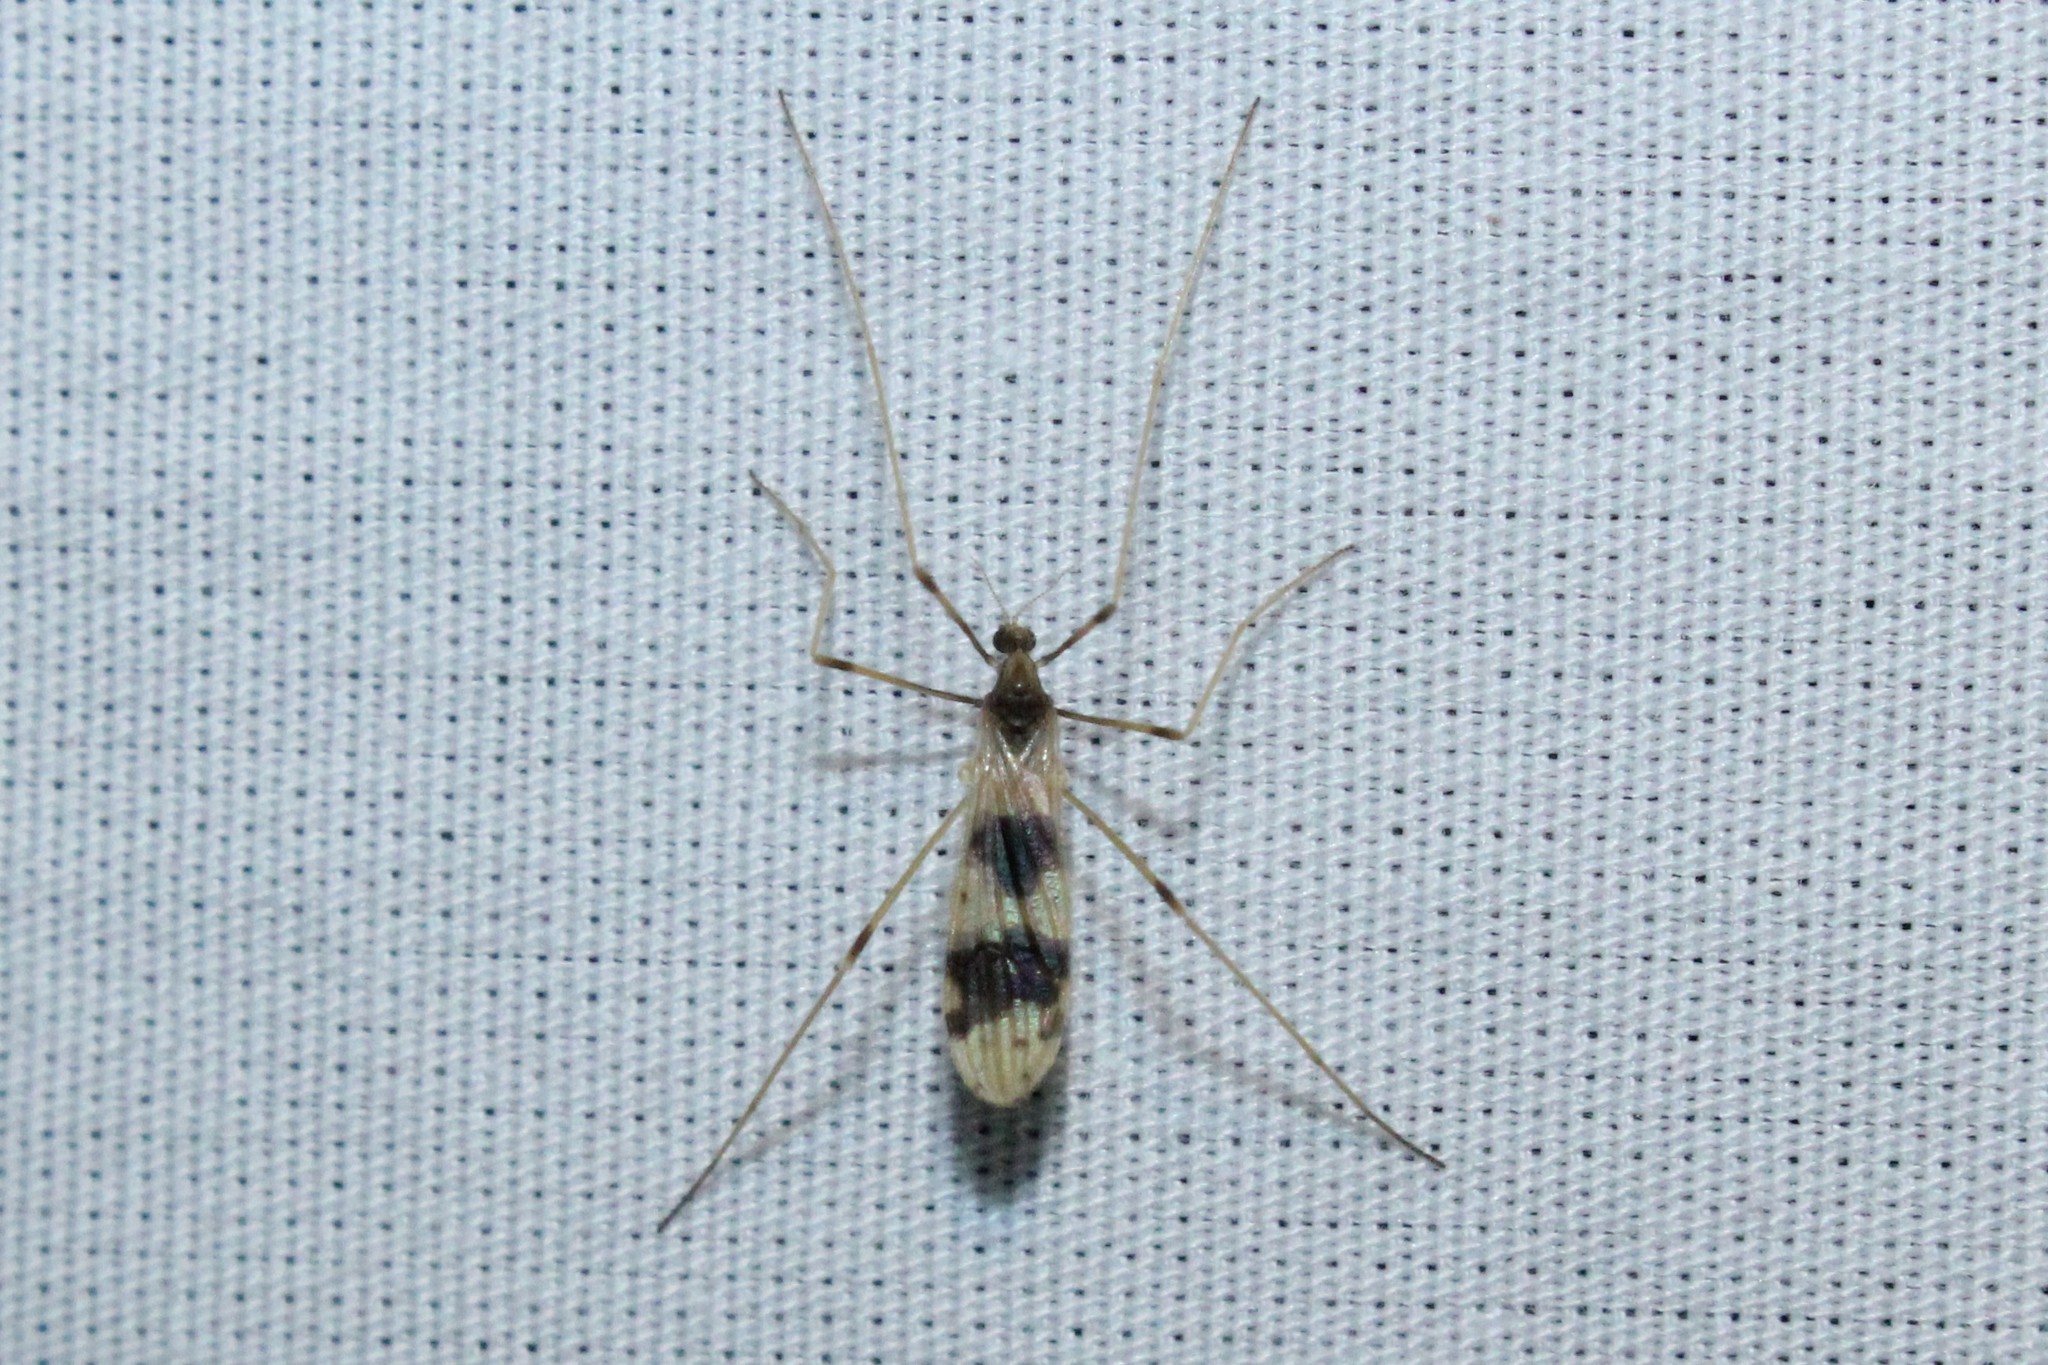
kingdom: Animalia
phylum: Arthropoda
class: Insecta
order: Diptera
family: Limoniidae
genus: Ilisia
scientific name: Ilisia venusta
